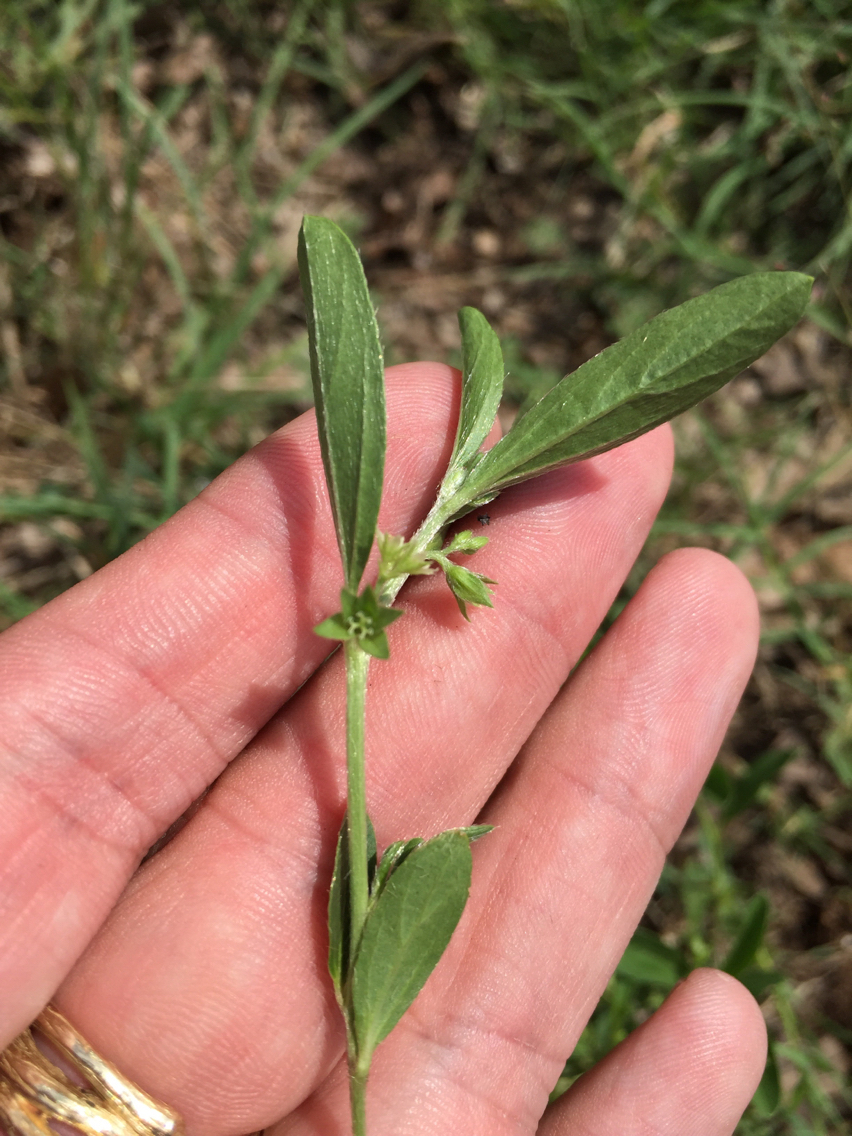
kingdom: Plantae
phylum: Tracheophyta
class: Magnoliopsida
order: Malpighiales
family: Euphorbiaceae
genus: Ditaxis
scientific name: Ditaxis humilis
